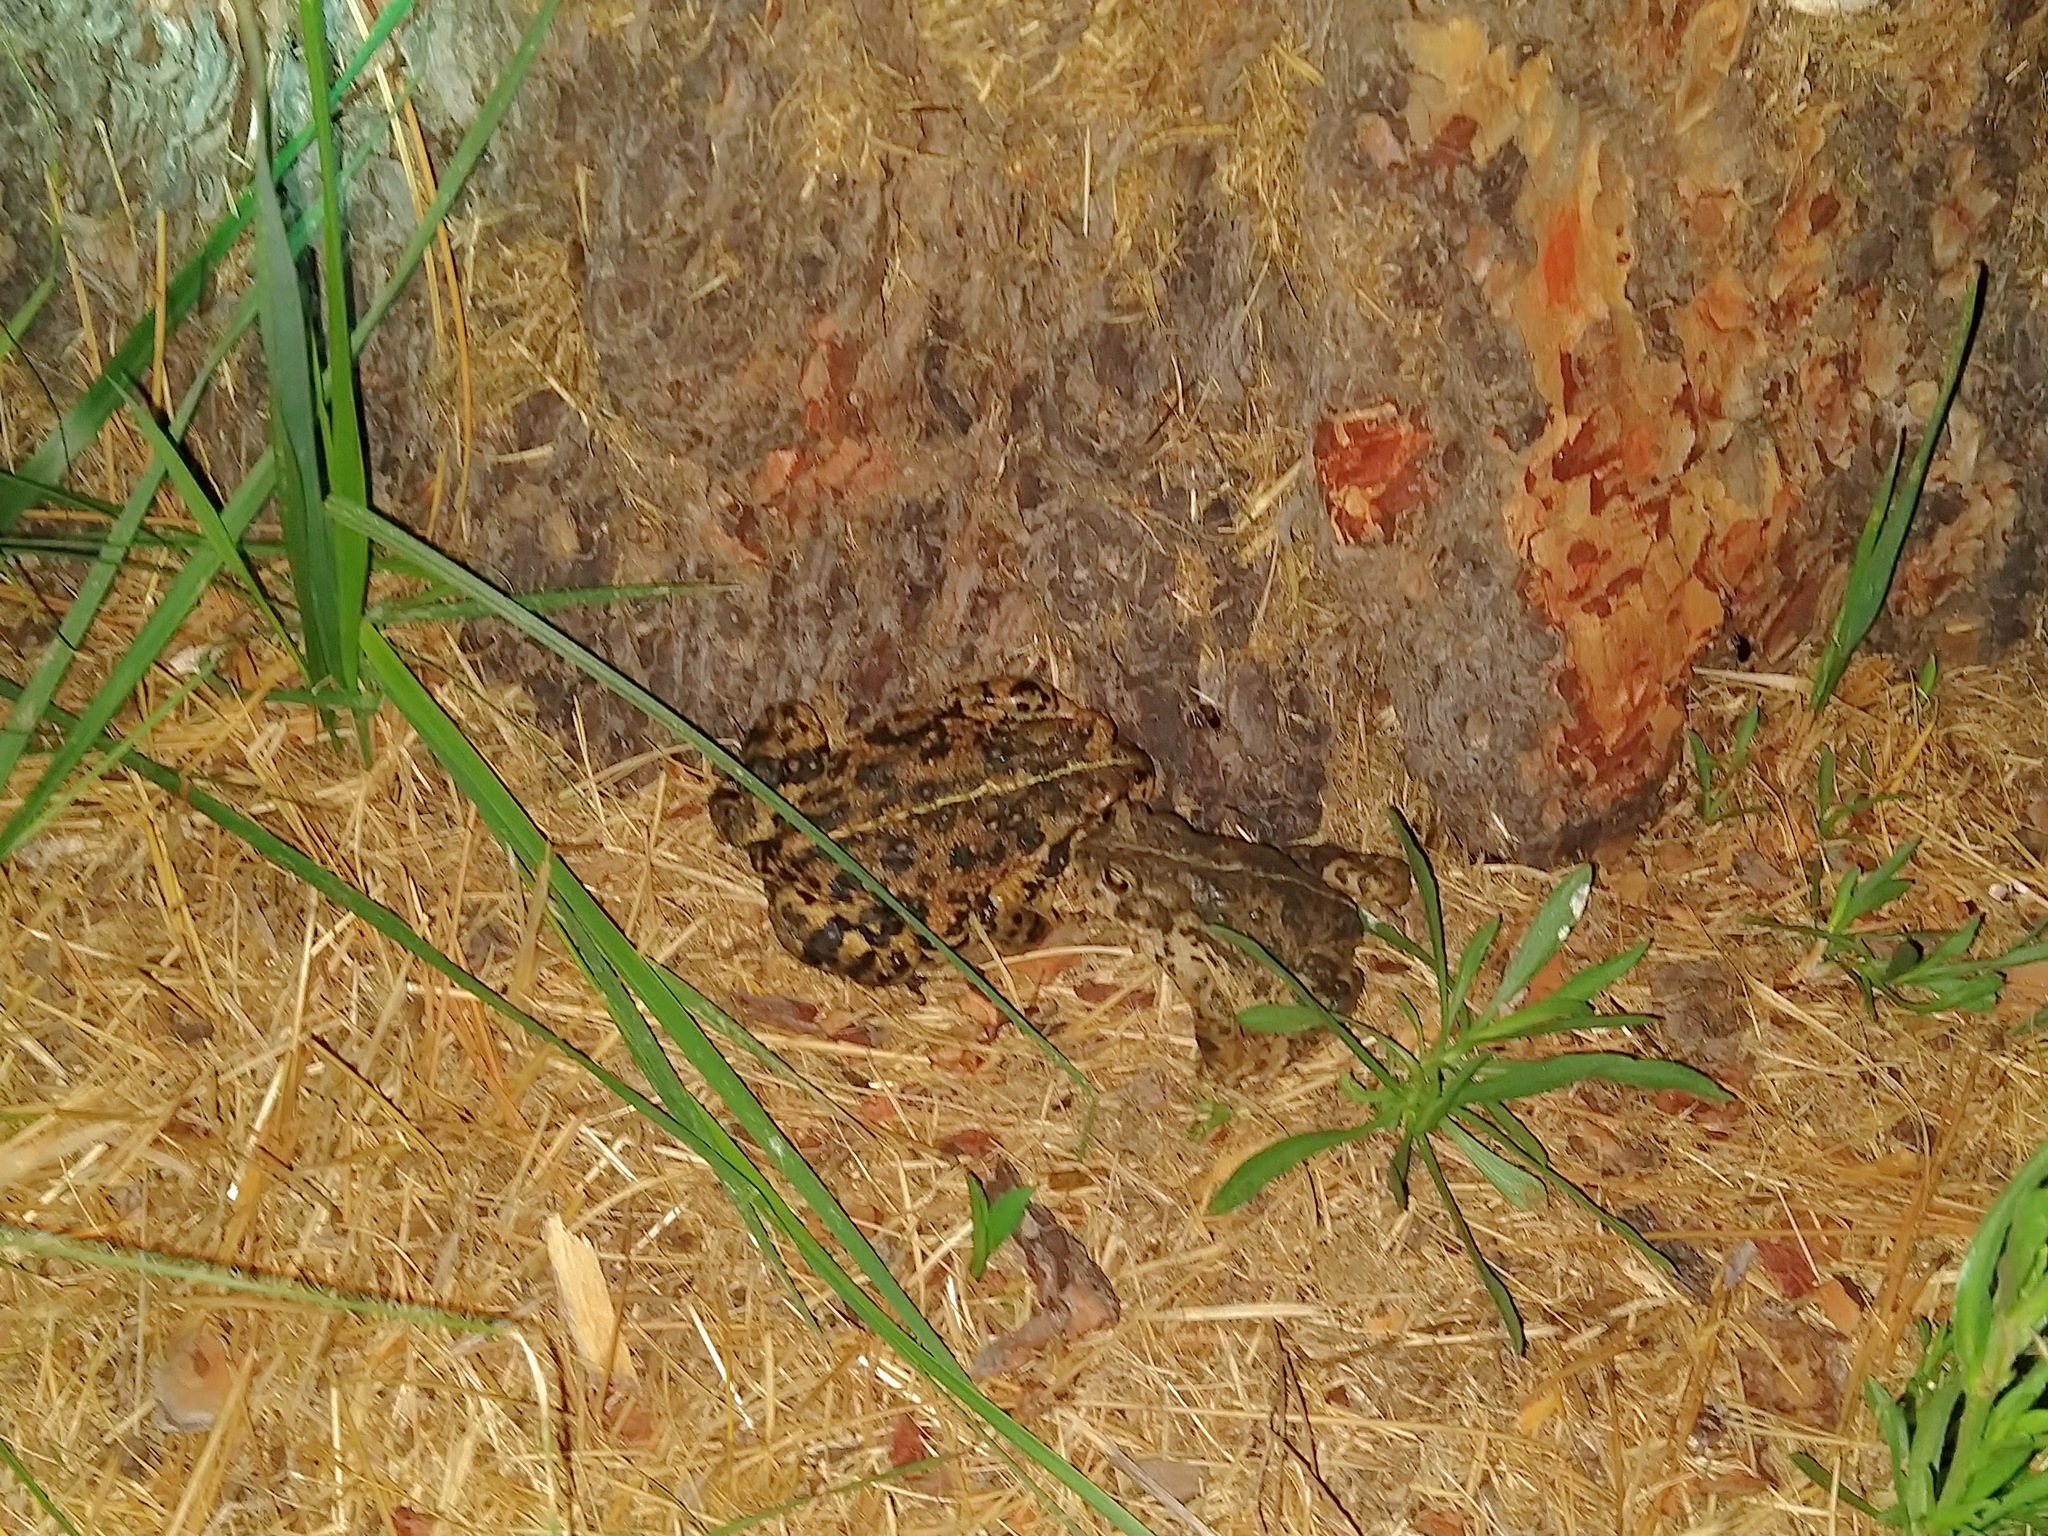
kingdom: Animalia
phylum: Chordata
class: Amphibia
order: Anura
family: Bufonidae
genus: Anaxyrus
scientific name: Anaxyrus boreas
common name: Western toad
